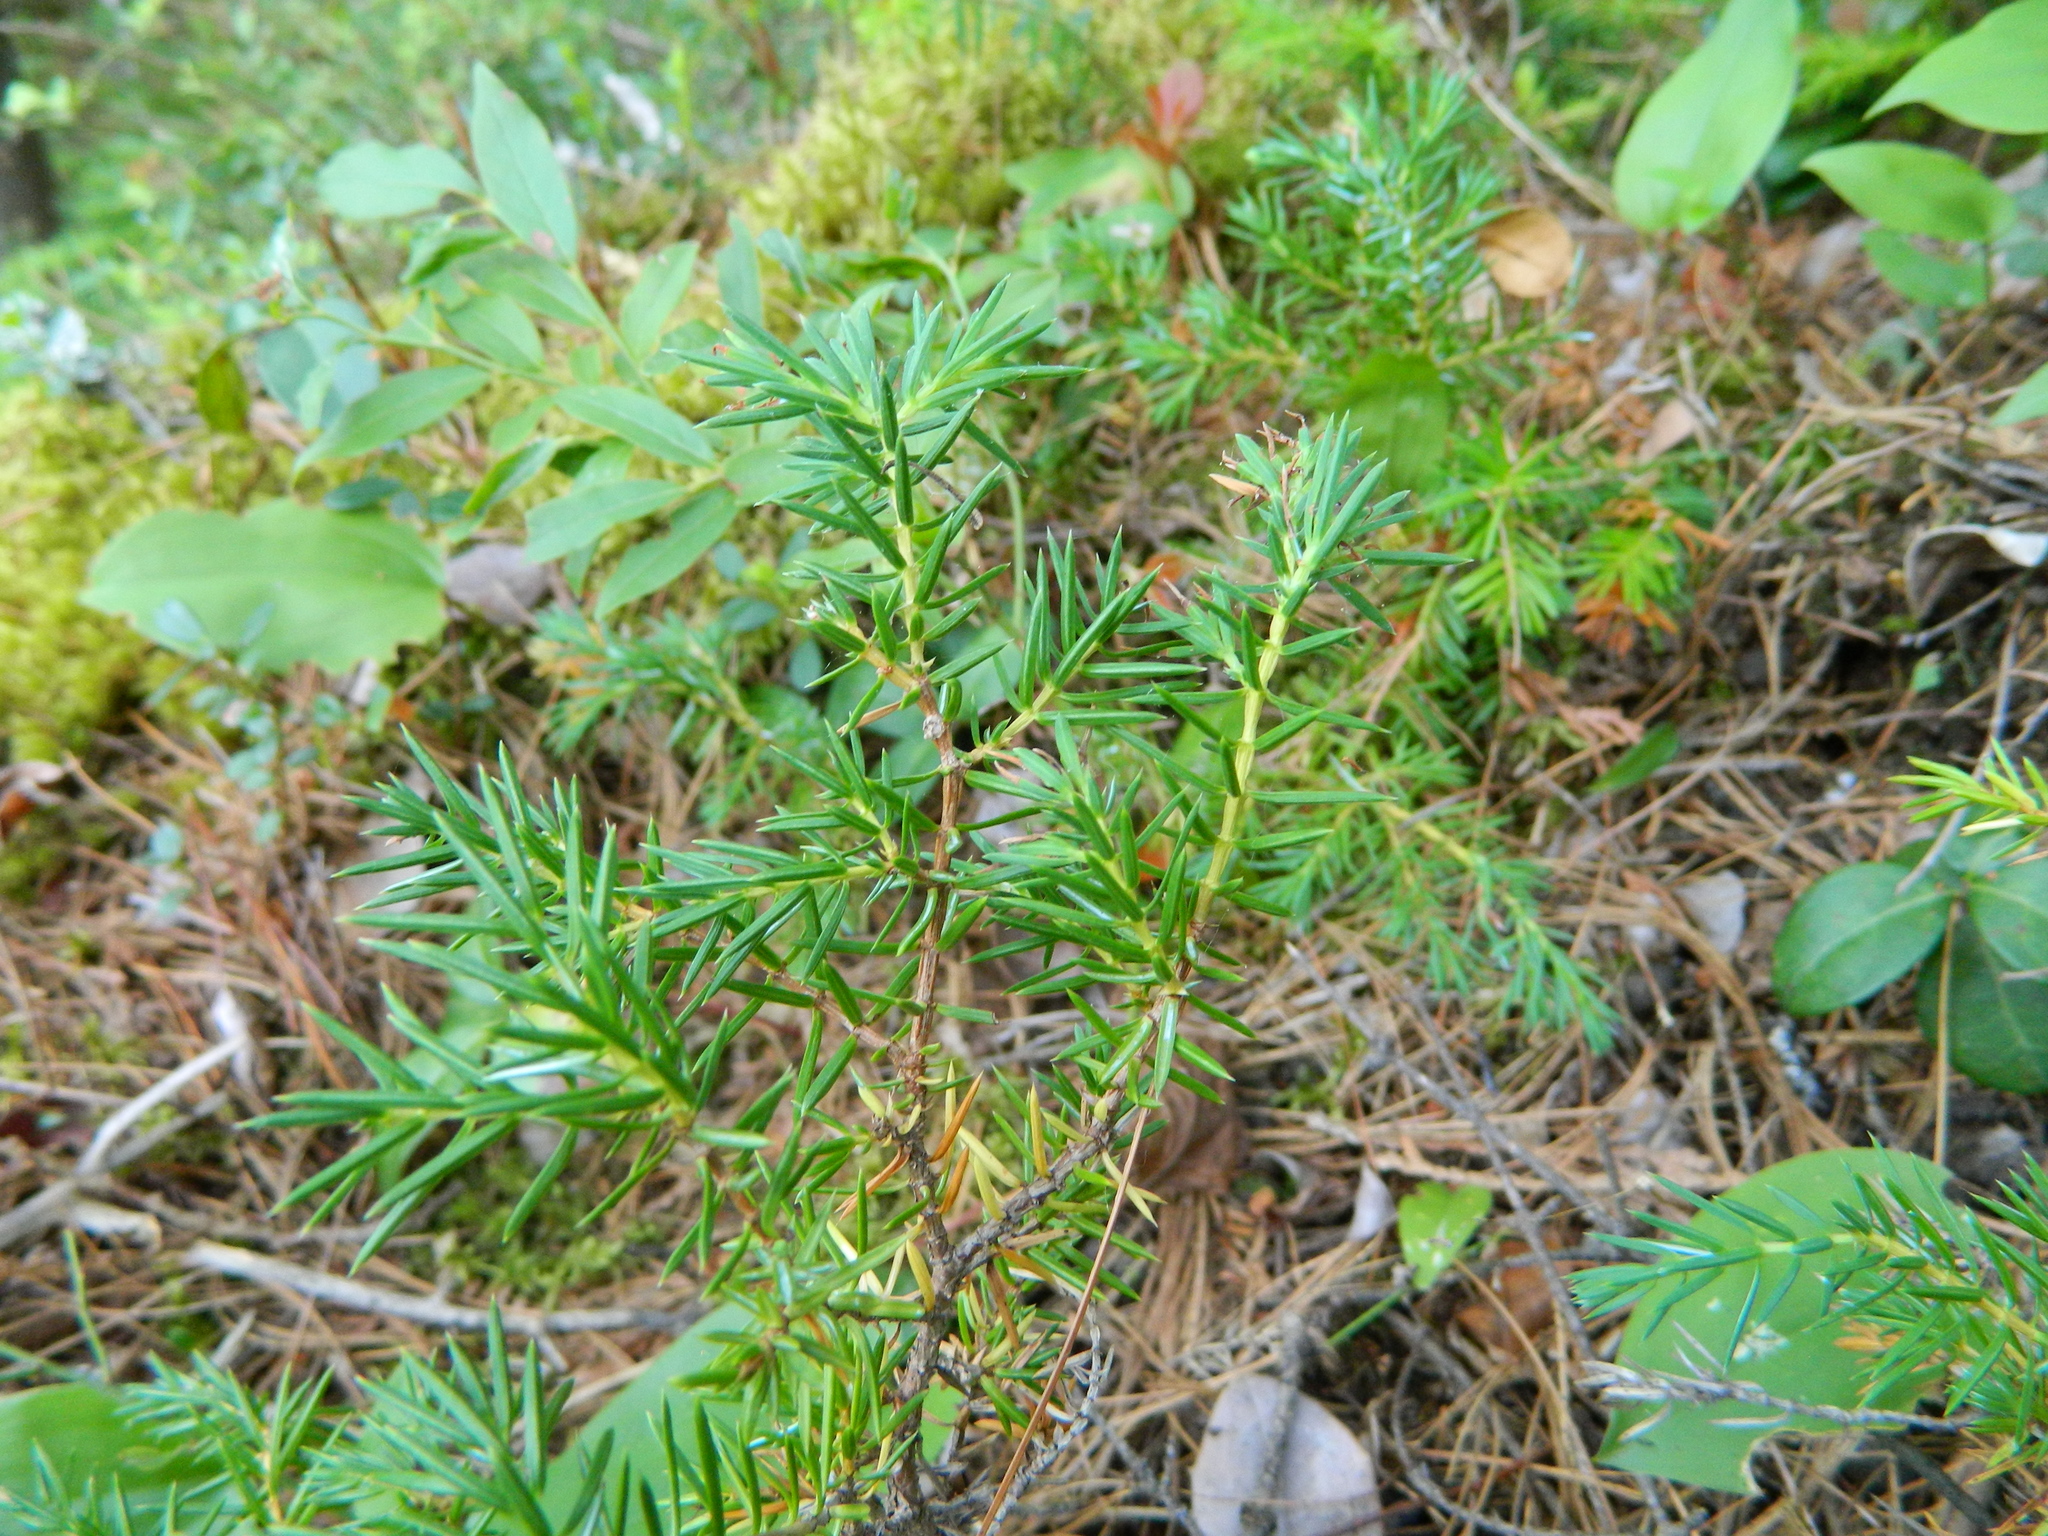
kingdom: Plantae
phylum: Tracheophyta
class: Pinopsida
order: Pinales
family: Cupressaceae
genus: Juniperus
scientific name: Juniperus communis
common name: Common juniper
